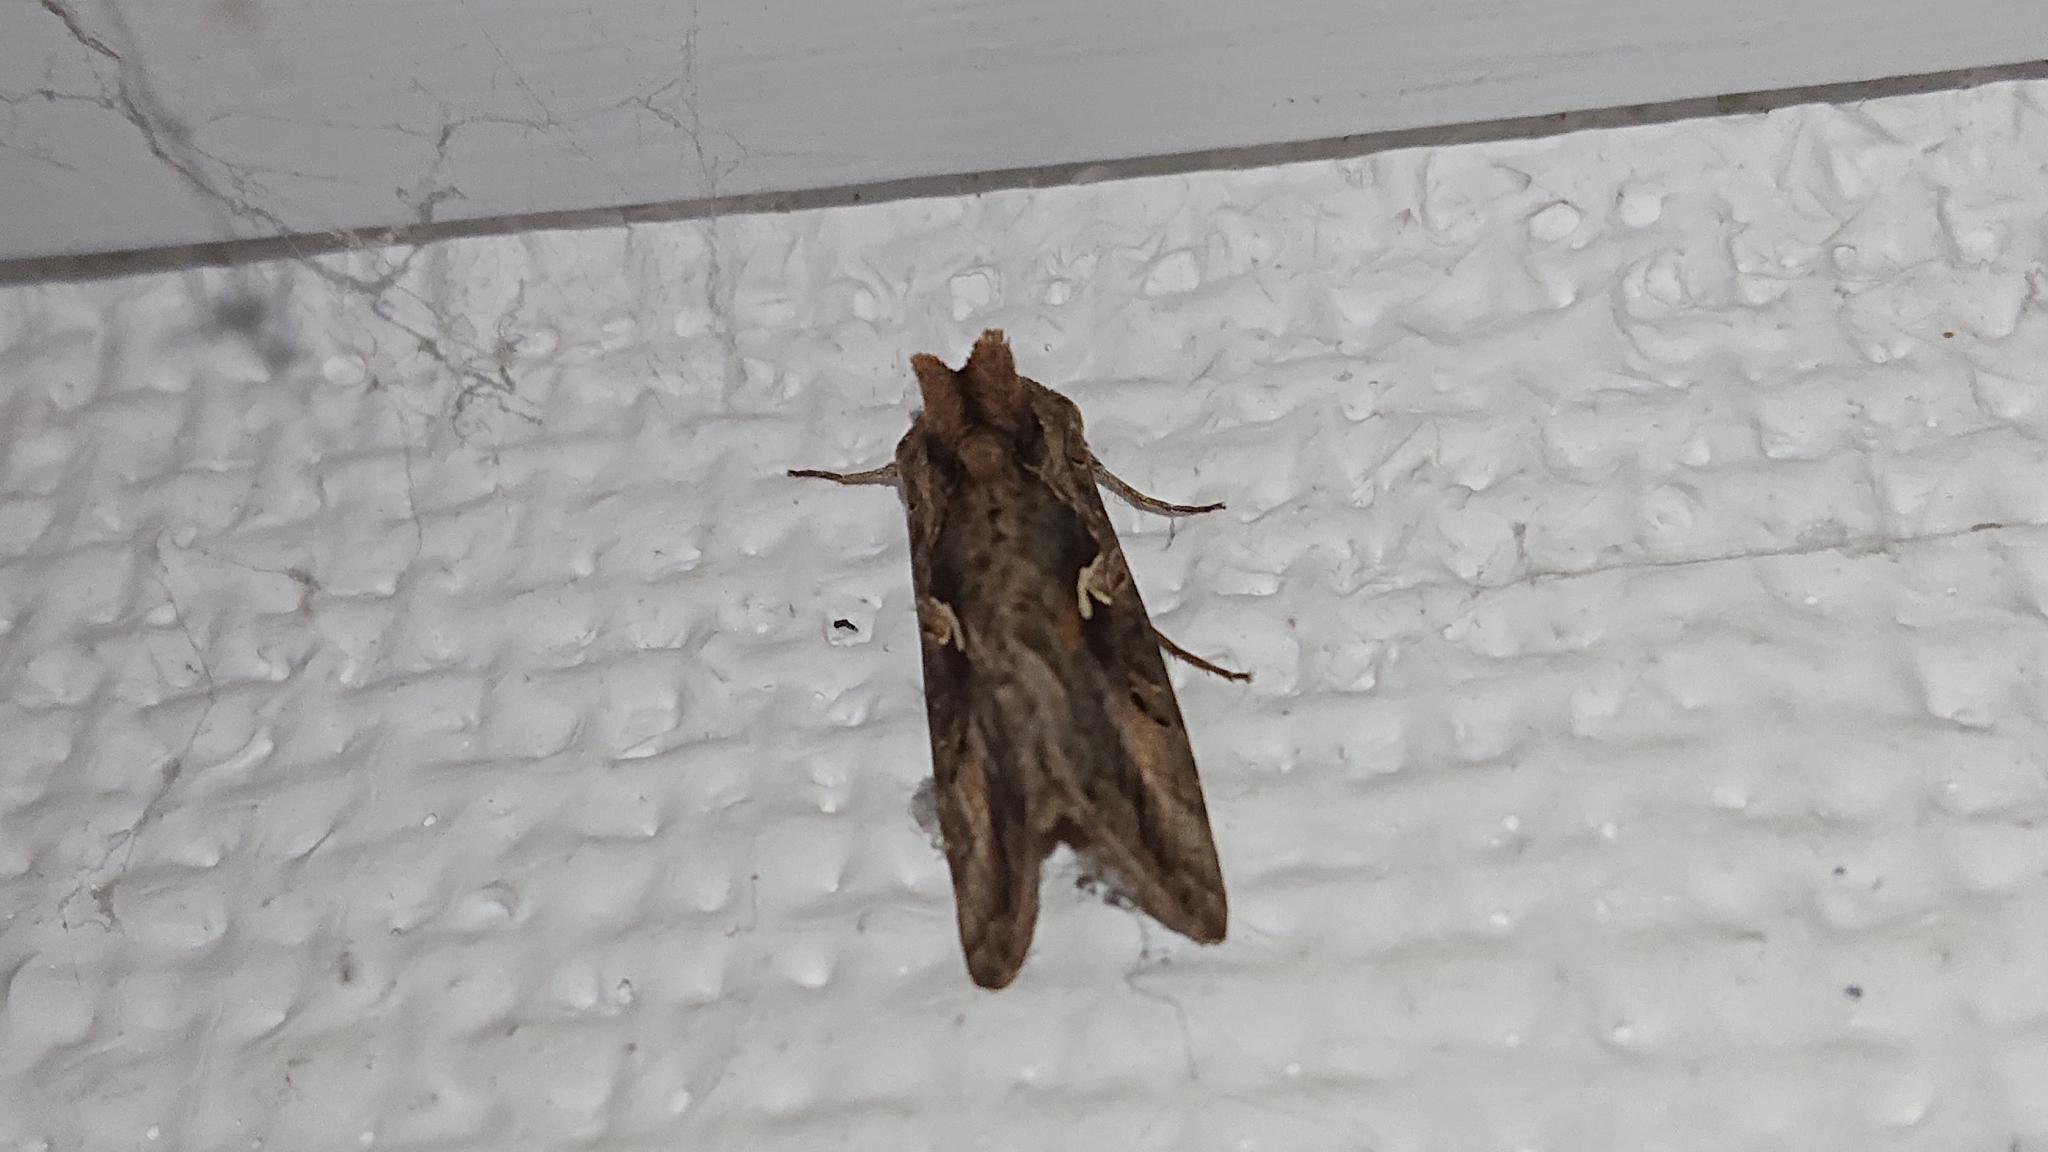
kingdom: Animalia
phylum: Arthropoda
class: Insecta
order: Lepidoptera
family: Noctuidae
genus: Autographa
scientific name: Autographa gamma
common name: Silver y
